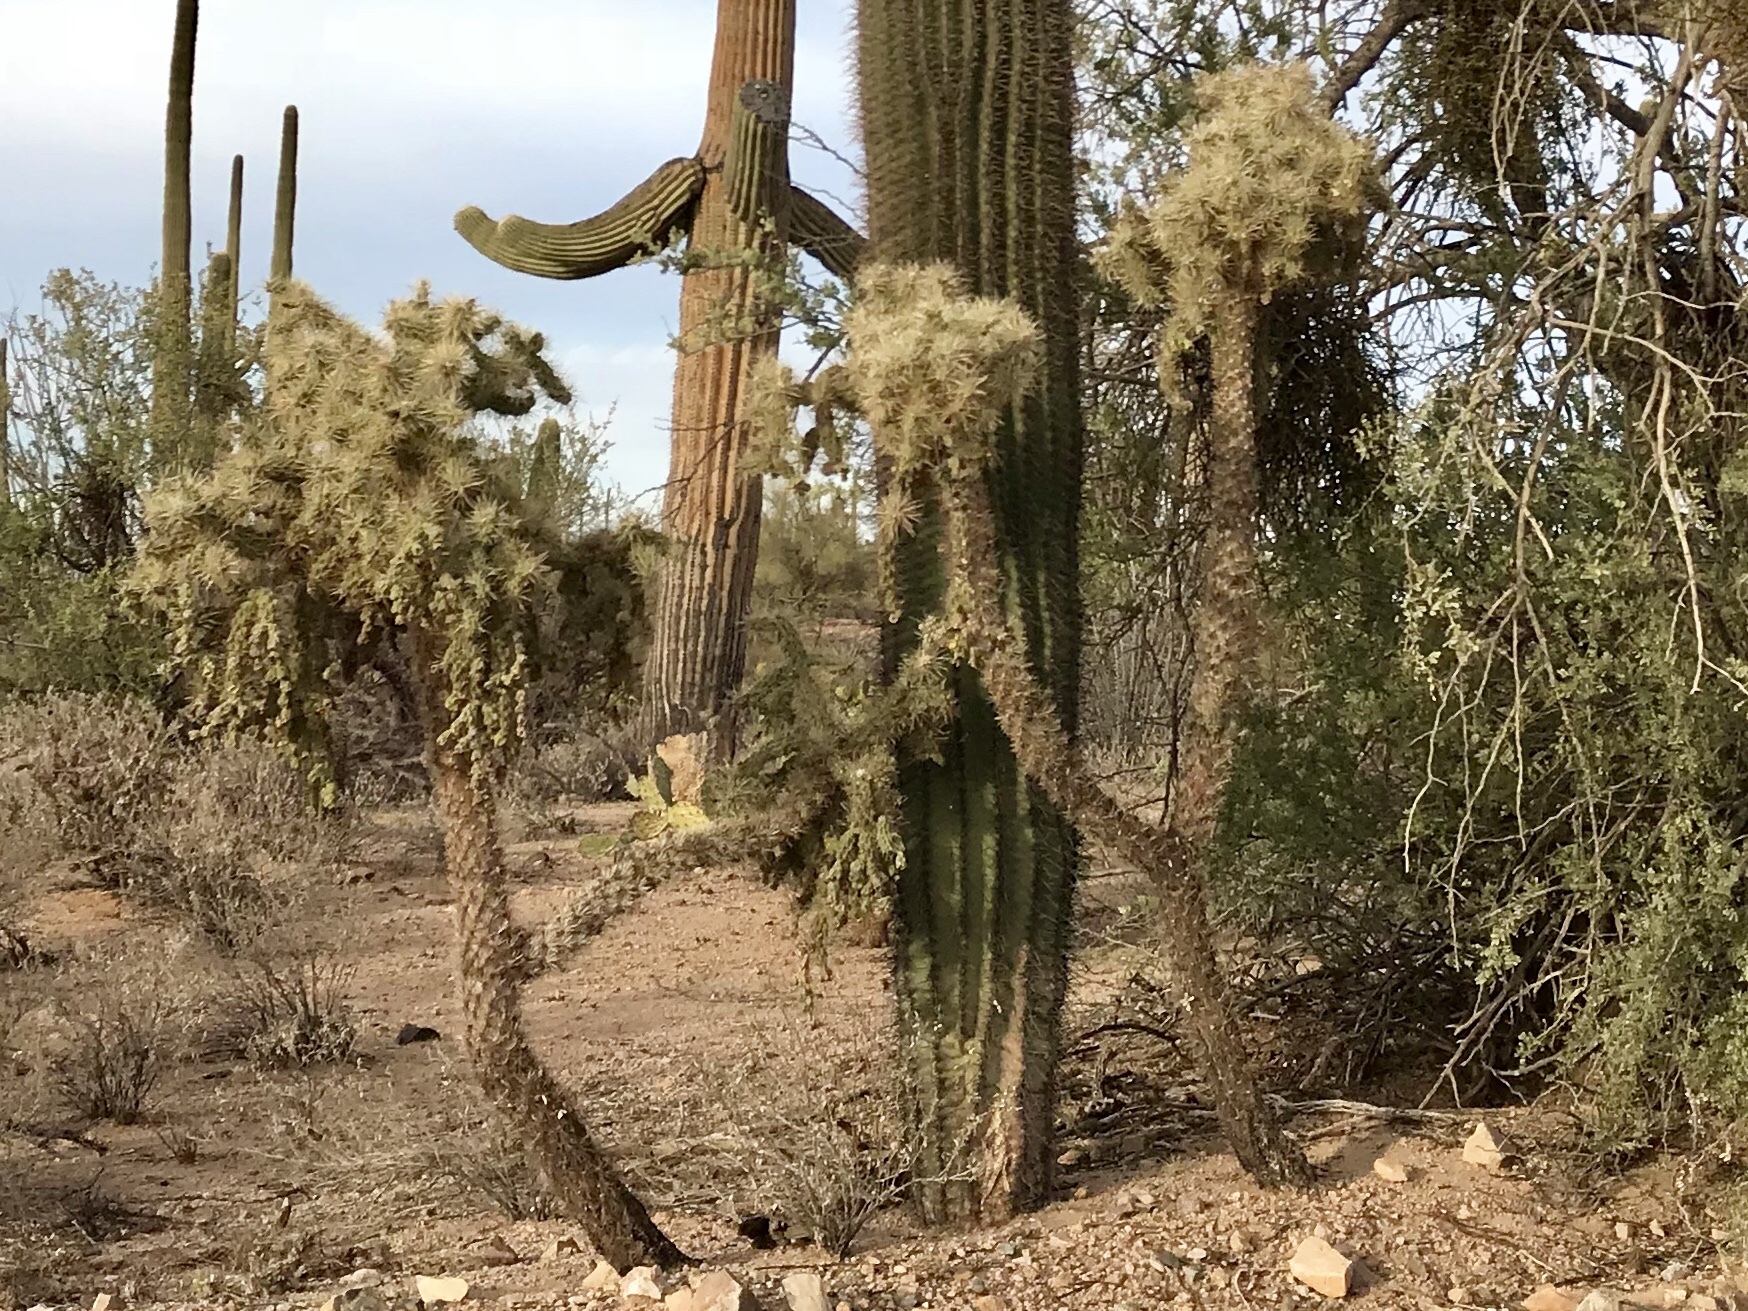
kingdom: Plantae
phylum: Tracheophyta
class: Magnoliopsida
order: Caryophyllales
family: Cactaceae
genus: Cylindropuntia
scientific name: Cylindropuntia fulgida
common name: Jumping cholla
